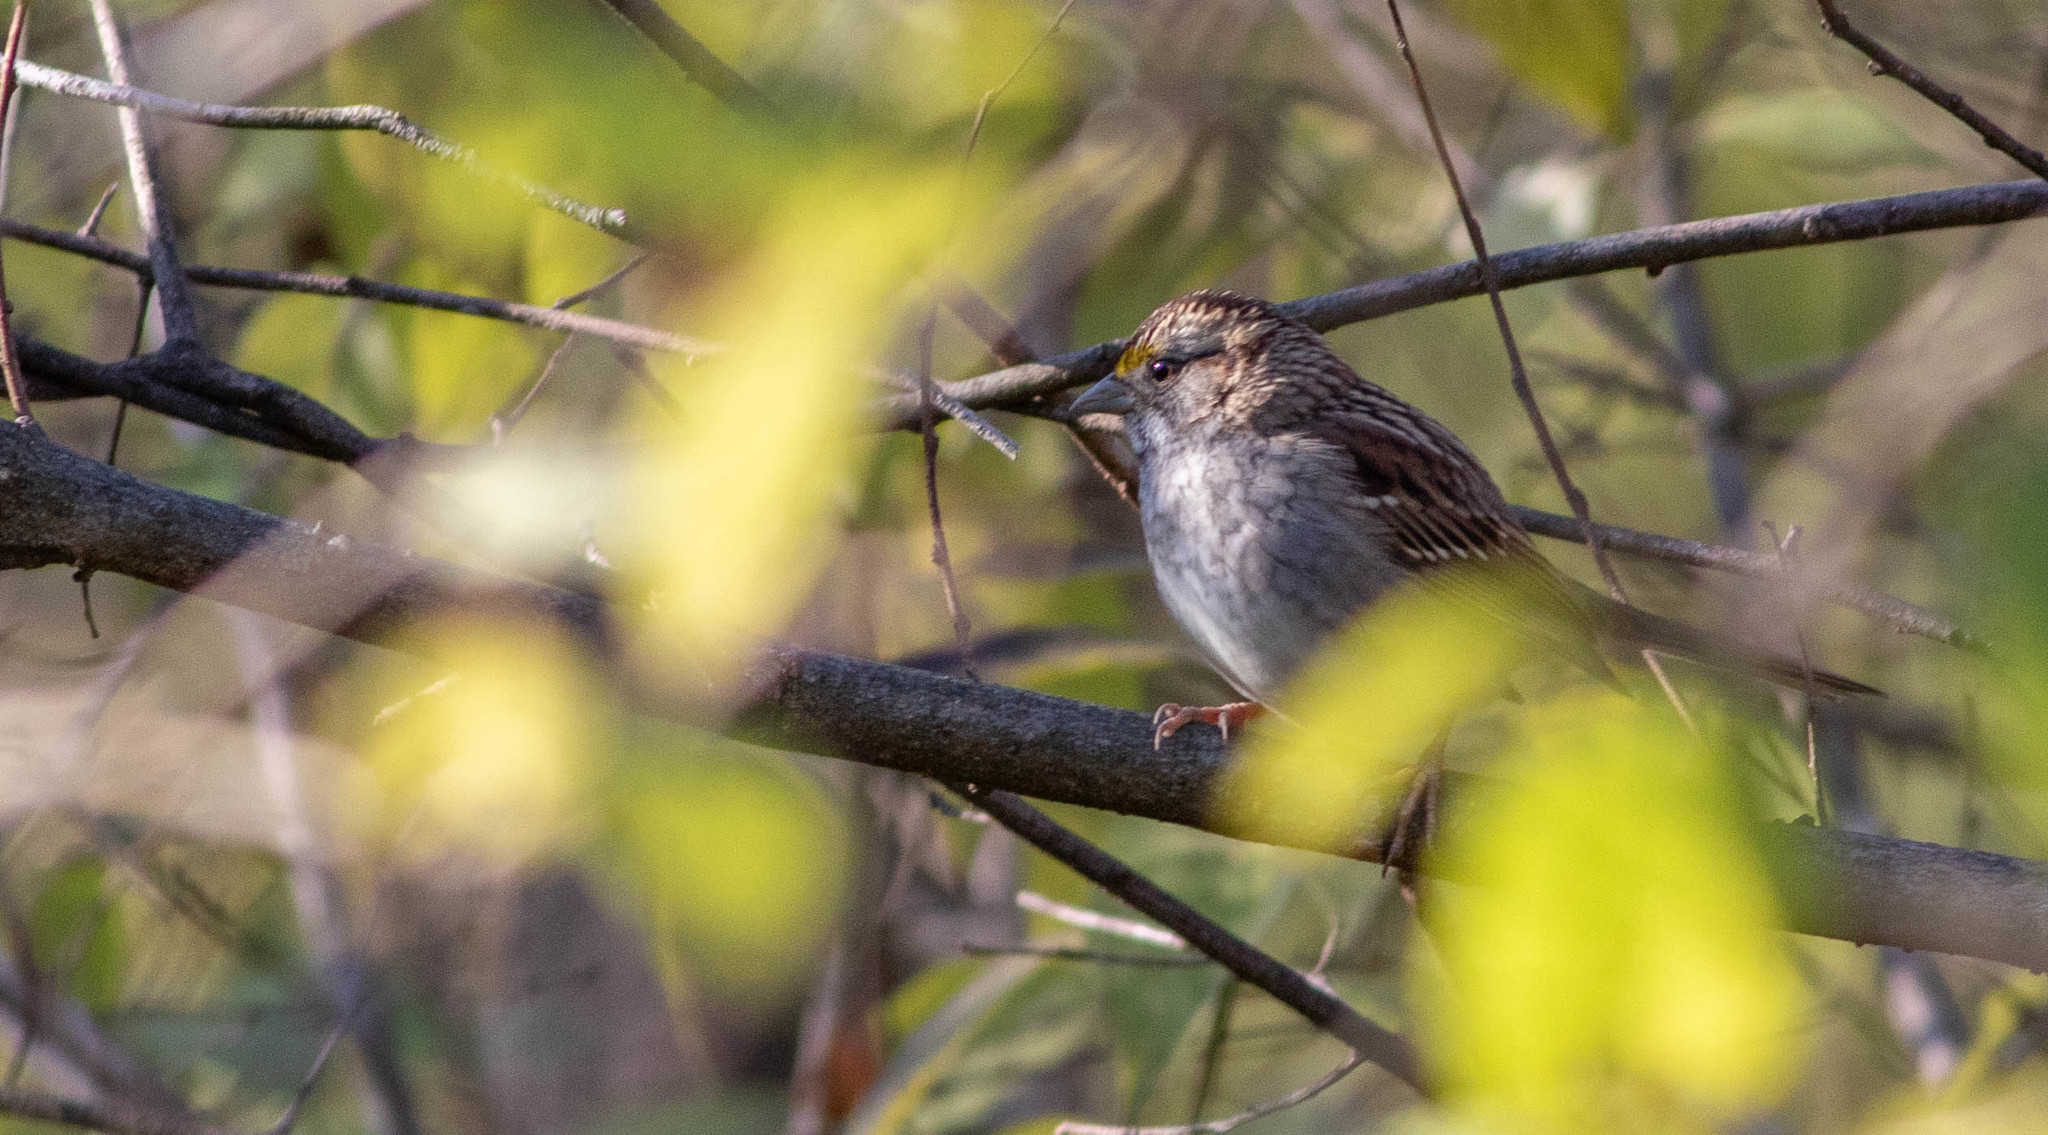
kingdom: Animalia
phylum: Chordata
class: Aves
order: Passeriformes
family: Passerellidae
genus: Zonotrichia
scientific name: Zonotrichia albicollis
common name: White-throated sparrow
